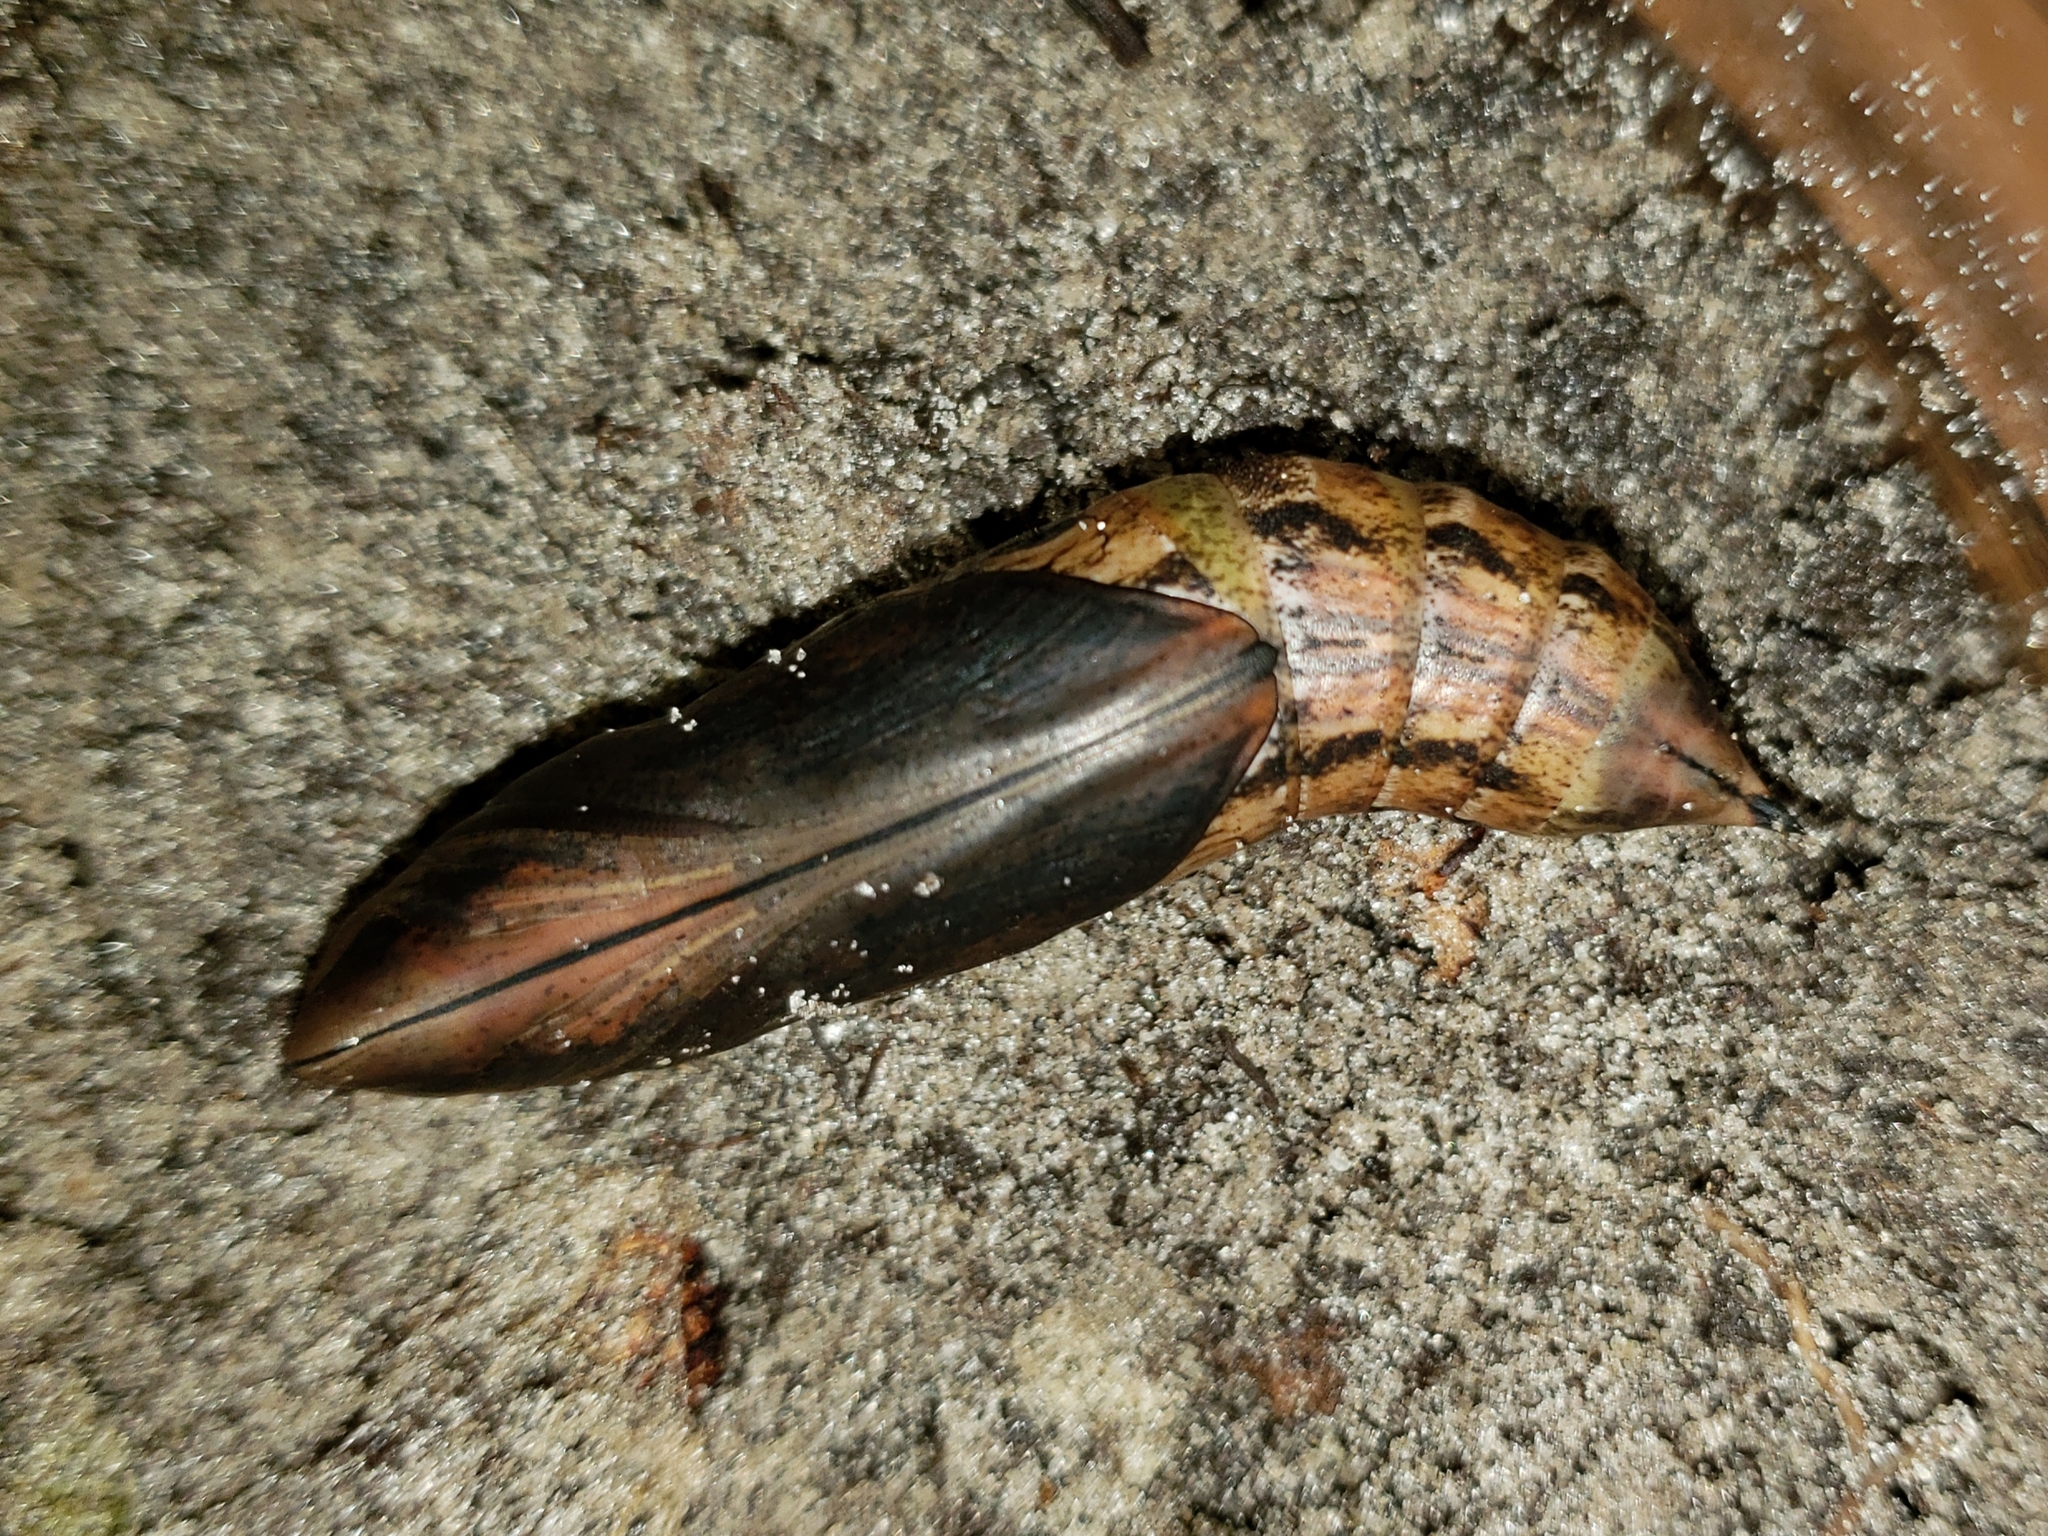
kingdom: Animalia
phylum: Arthropoda
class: Insecta
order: Lepidoptera
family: Sphingidae
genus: Xylophanes
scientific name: Xylophanes tersa
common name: Tersa sphinx
